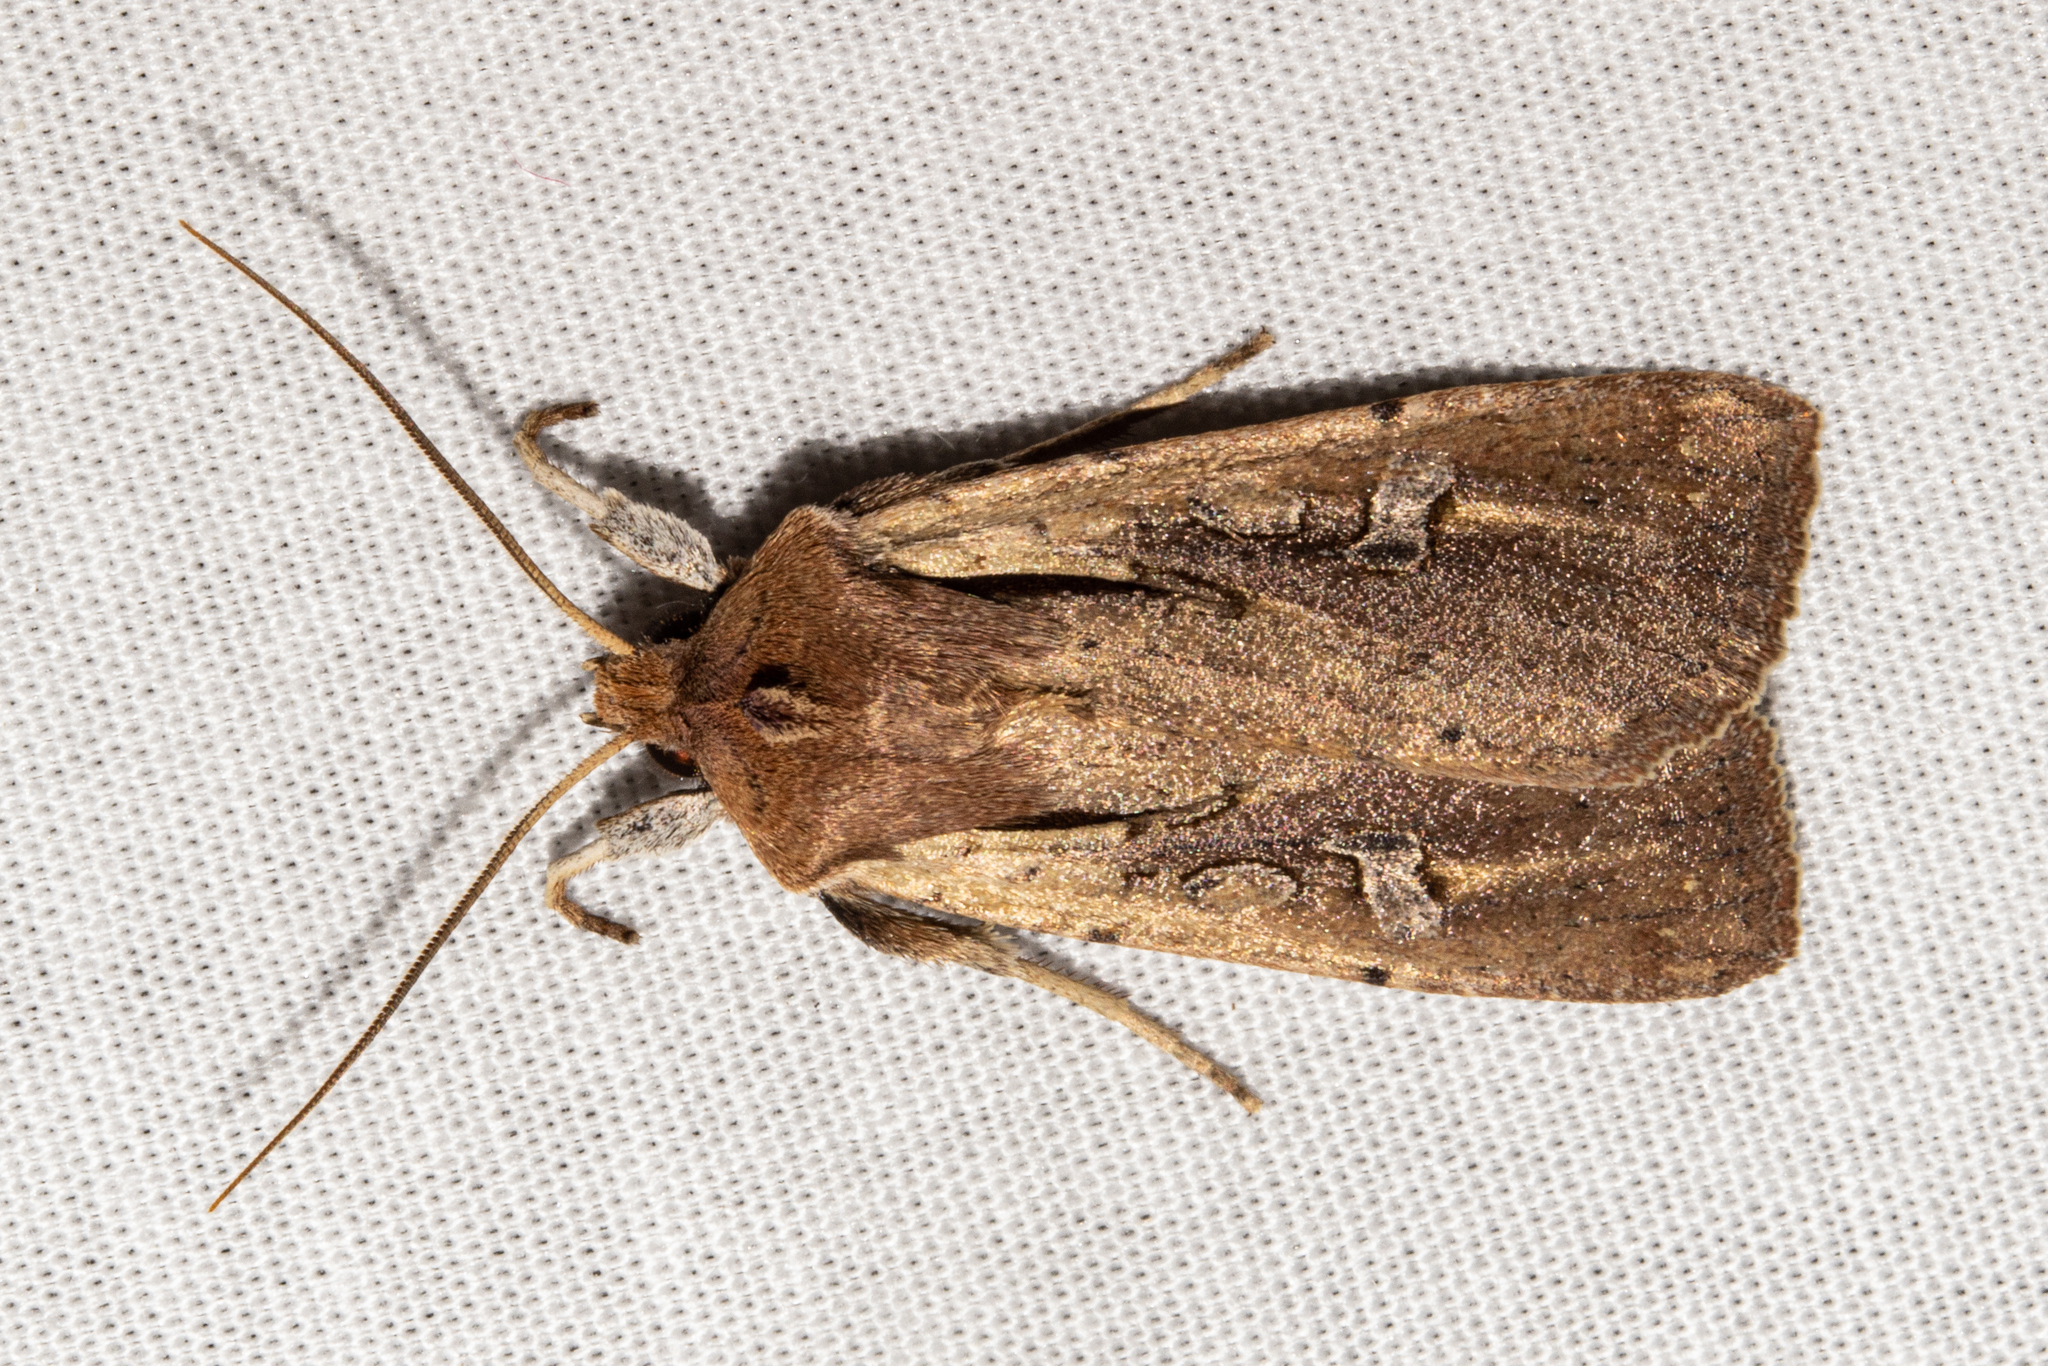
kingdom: Animalia
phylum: Arthropoda
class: Insecta
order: Lepidoptera
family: Noctuidae
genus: Ichneutica
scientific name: Ichneutica atristriga
